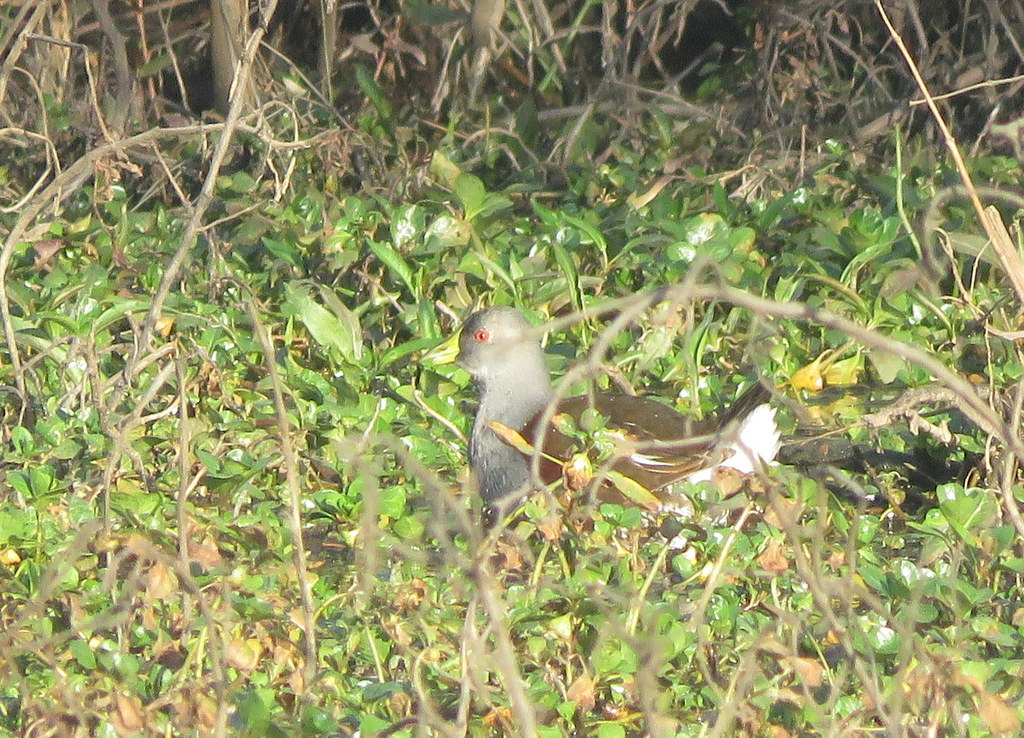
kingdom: Animalia
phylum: Chordata
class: Aves
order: Gruiformes
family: Rallidae
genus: Gallinula
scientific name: Gallinula melanops
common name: Spot-flanked gallinule
